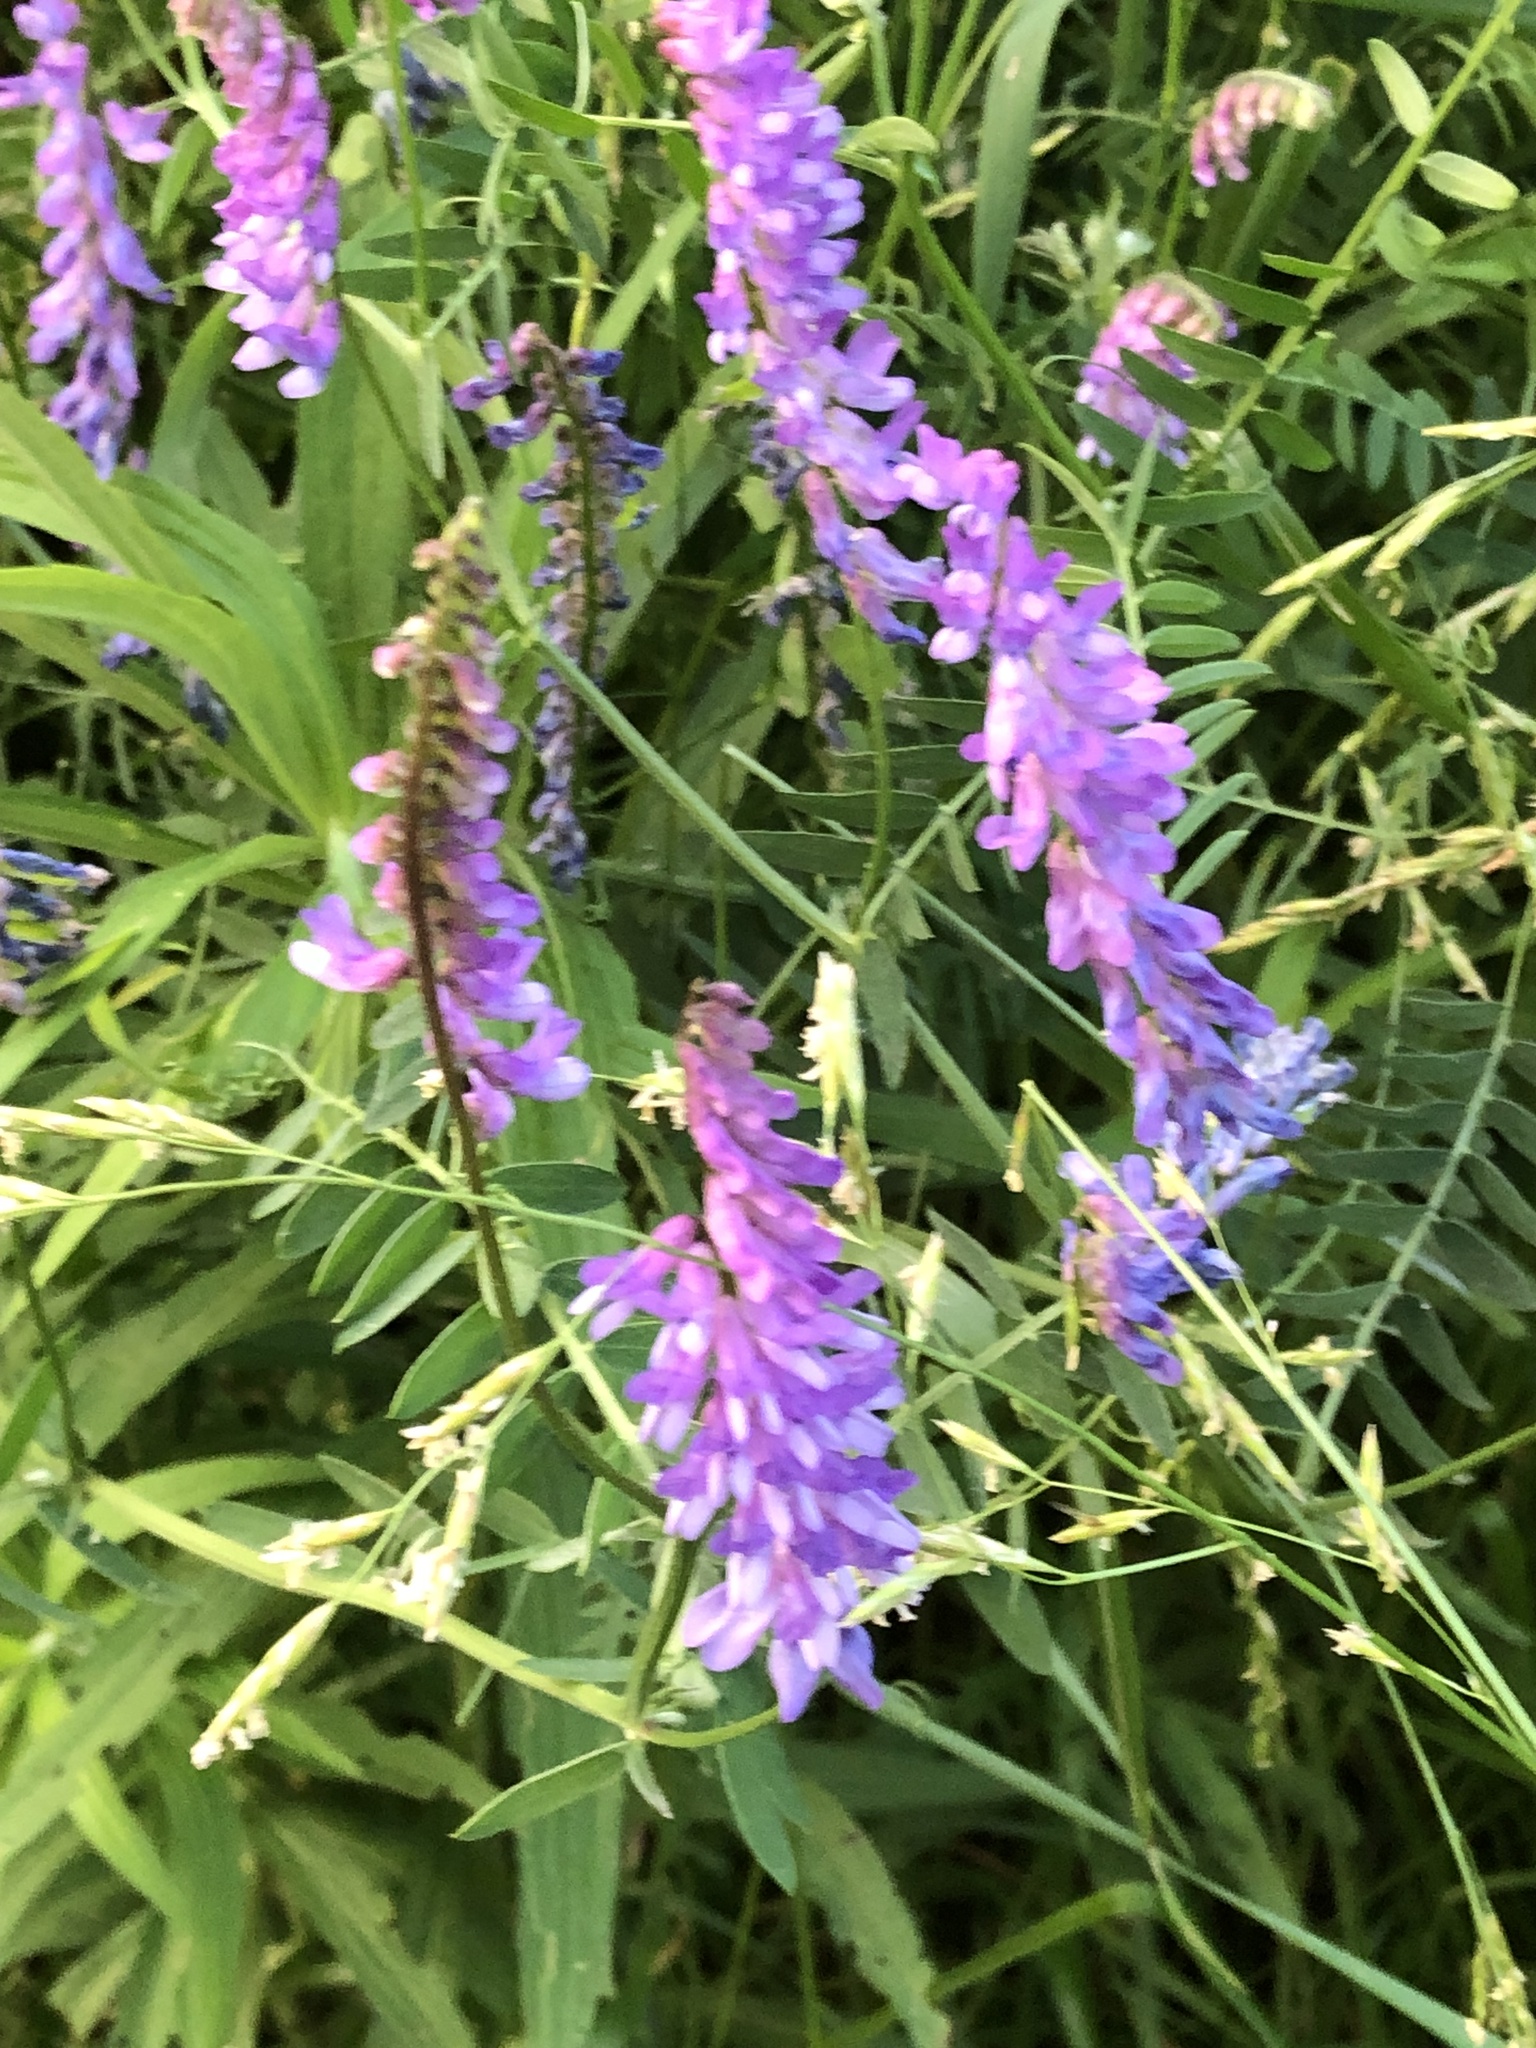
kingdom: Plantae
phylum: Tracheophyta
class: Magnoliopsida
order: Fabales
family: Fabaceae
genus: Vicia
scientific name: Vicia cracca
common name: Bird vetch
